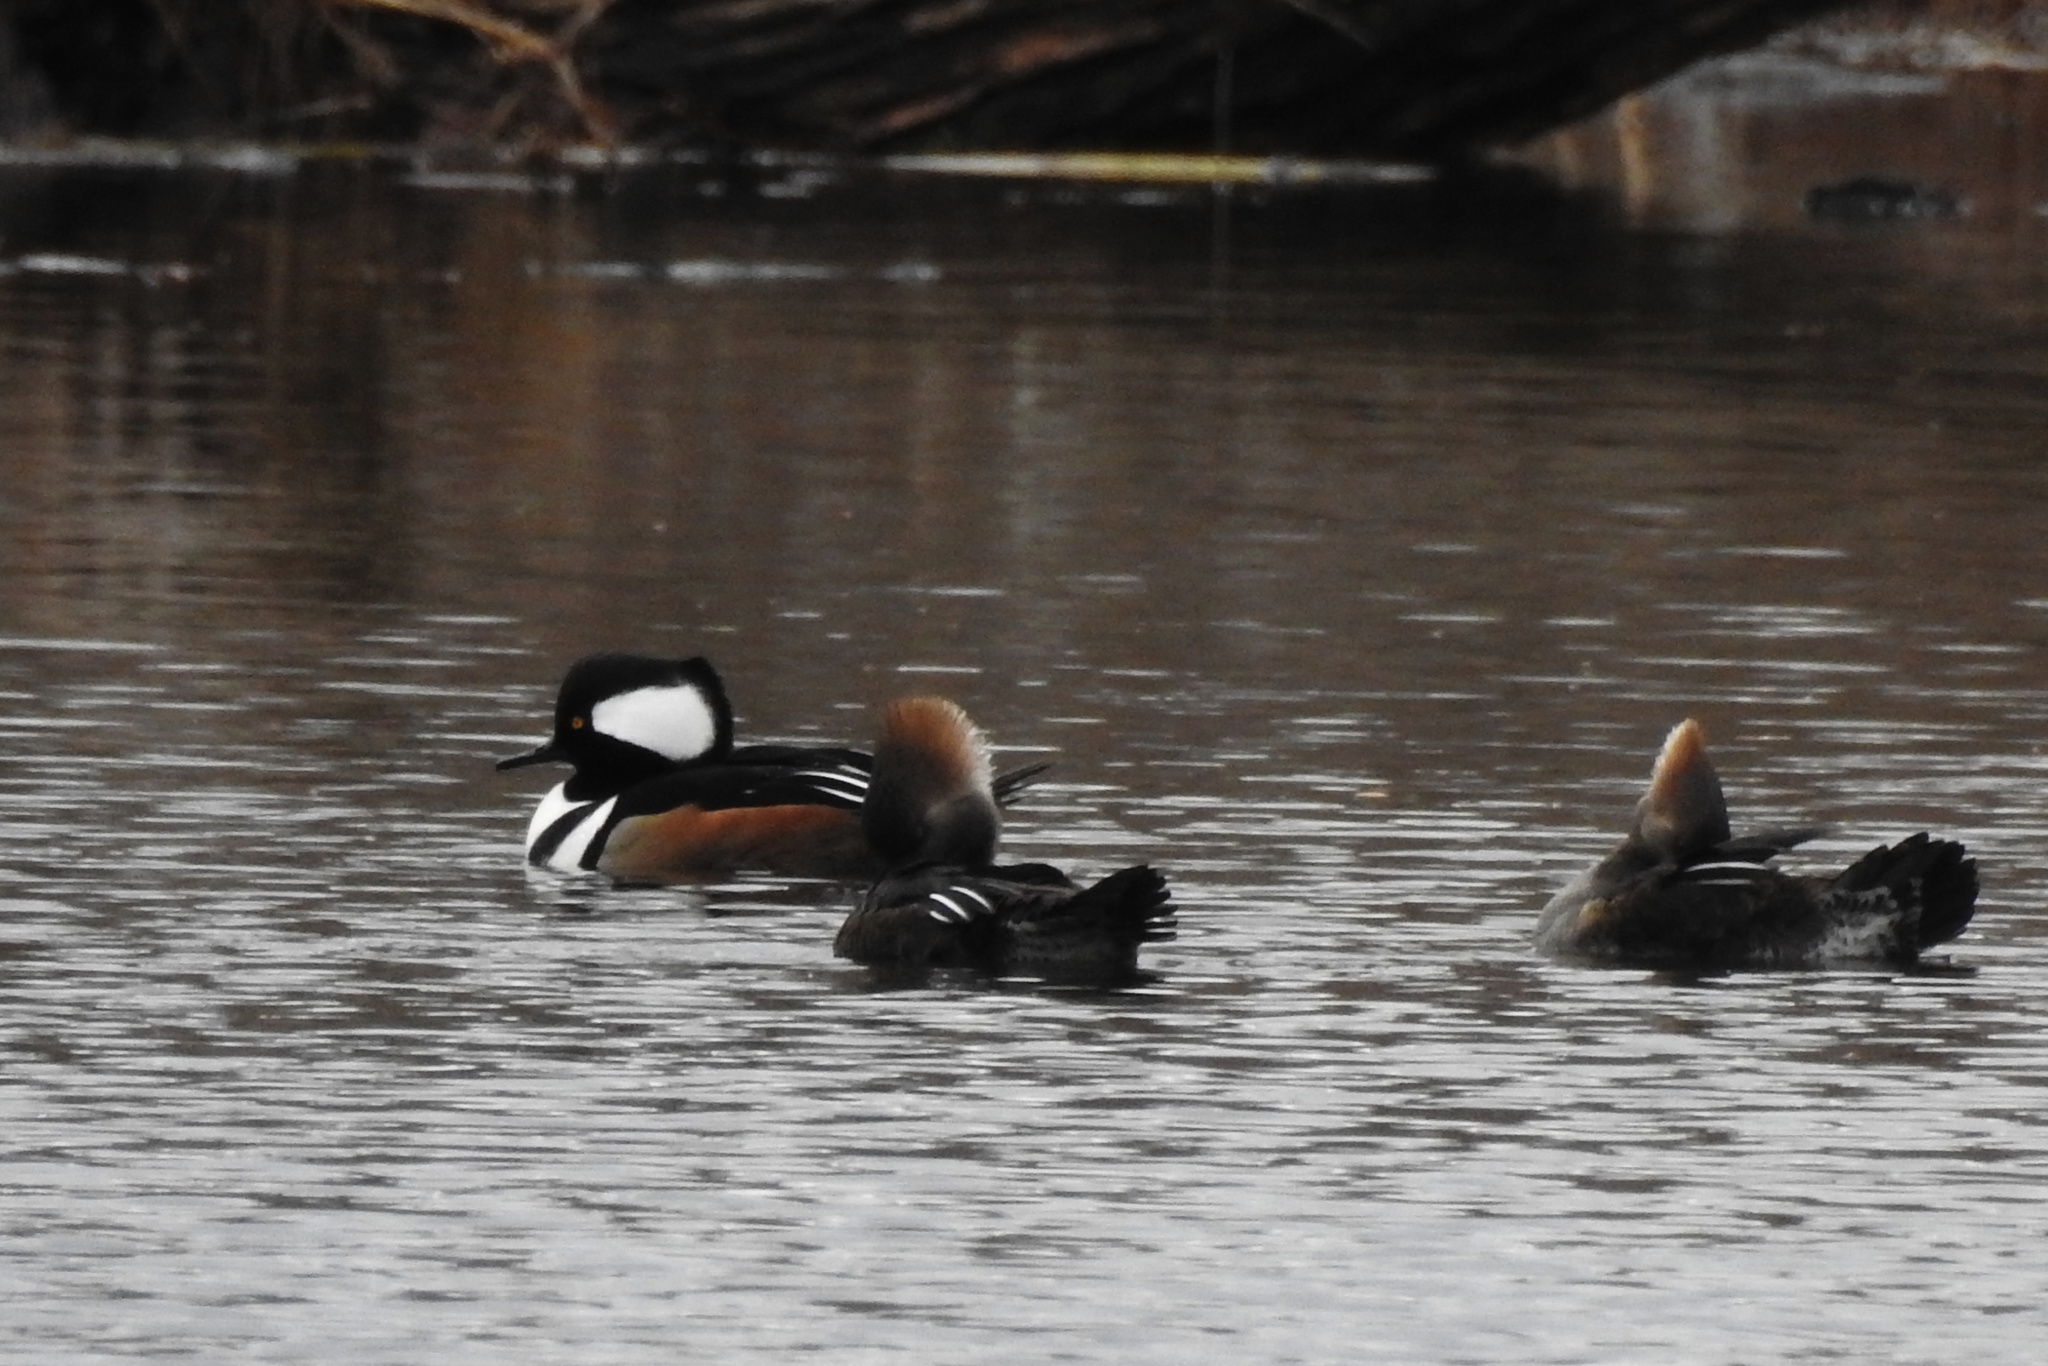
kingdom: Animalia
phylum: Chordata
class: Aves
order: Anseriformes
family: Anatidae
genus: Lophodytes
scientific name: Lophodytes cucullatus
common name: Hooded merganser
